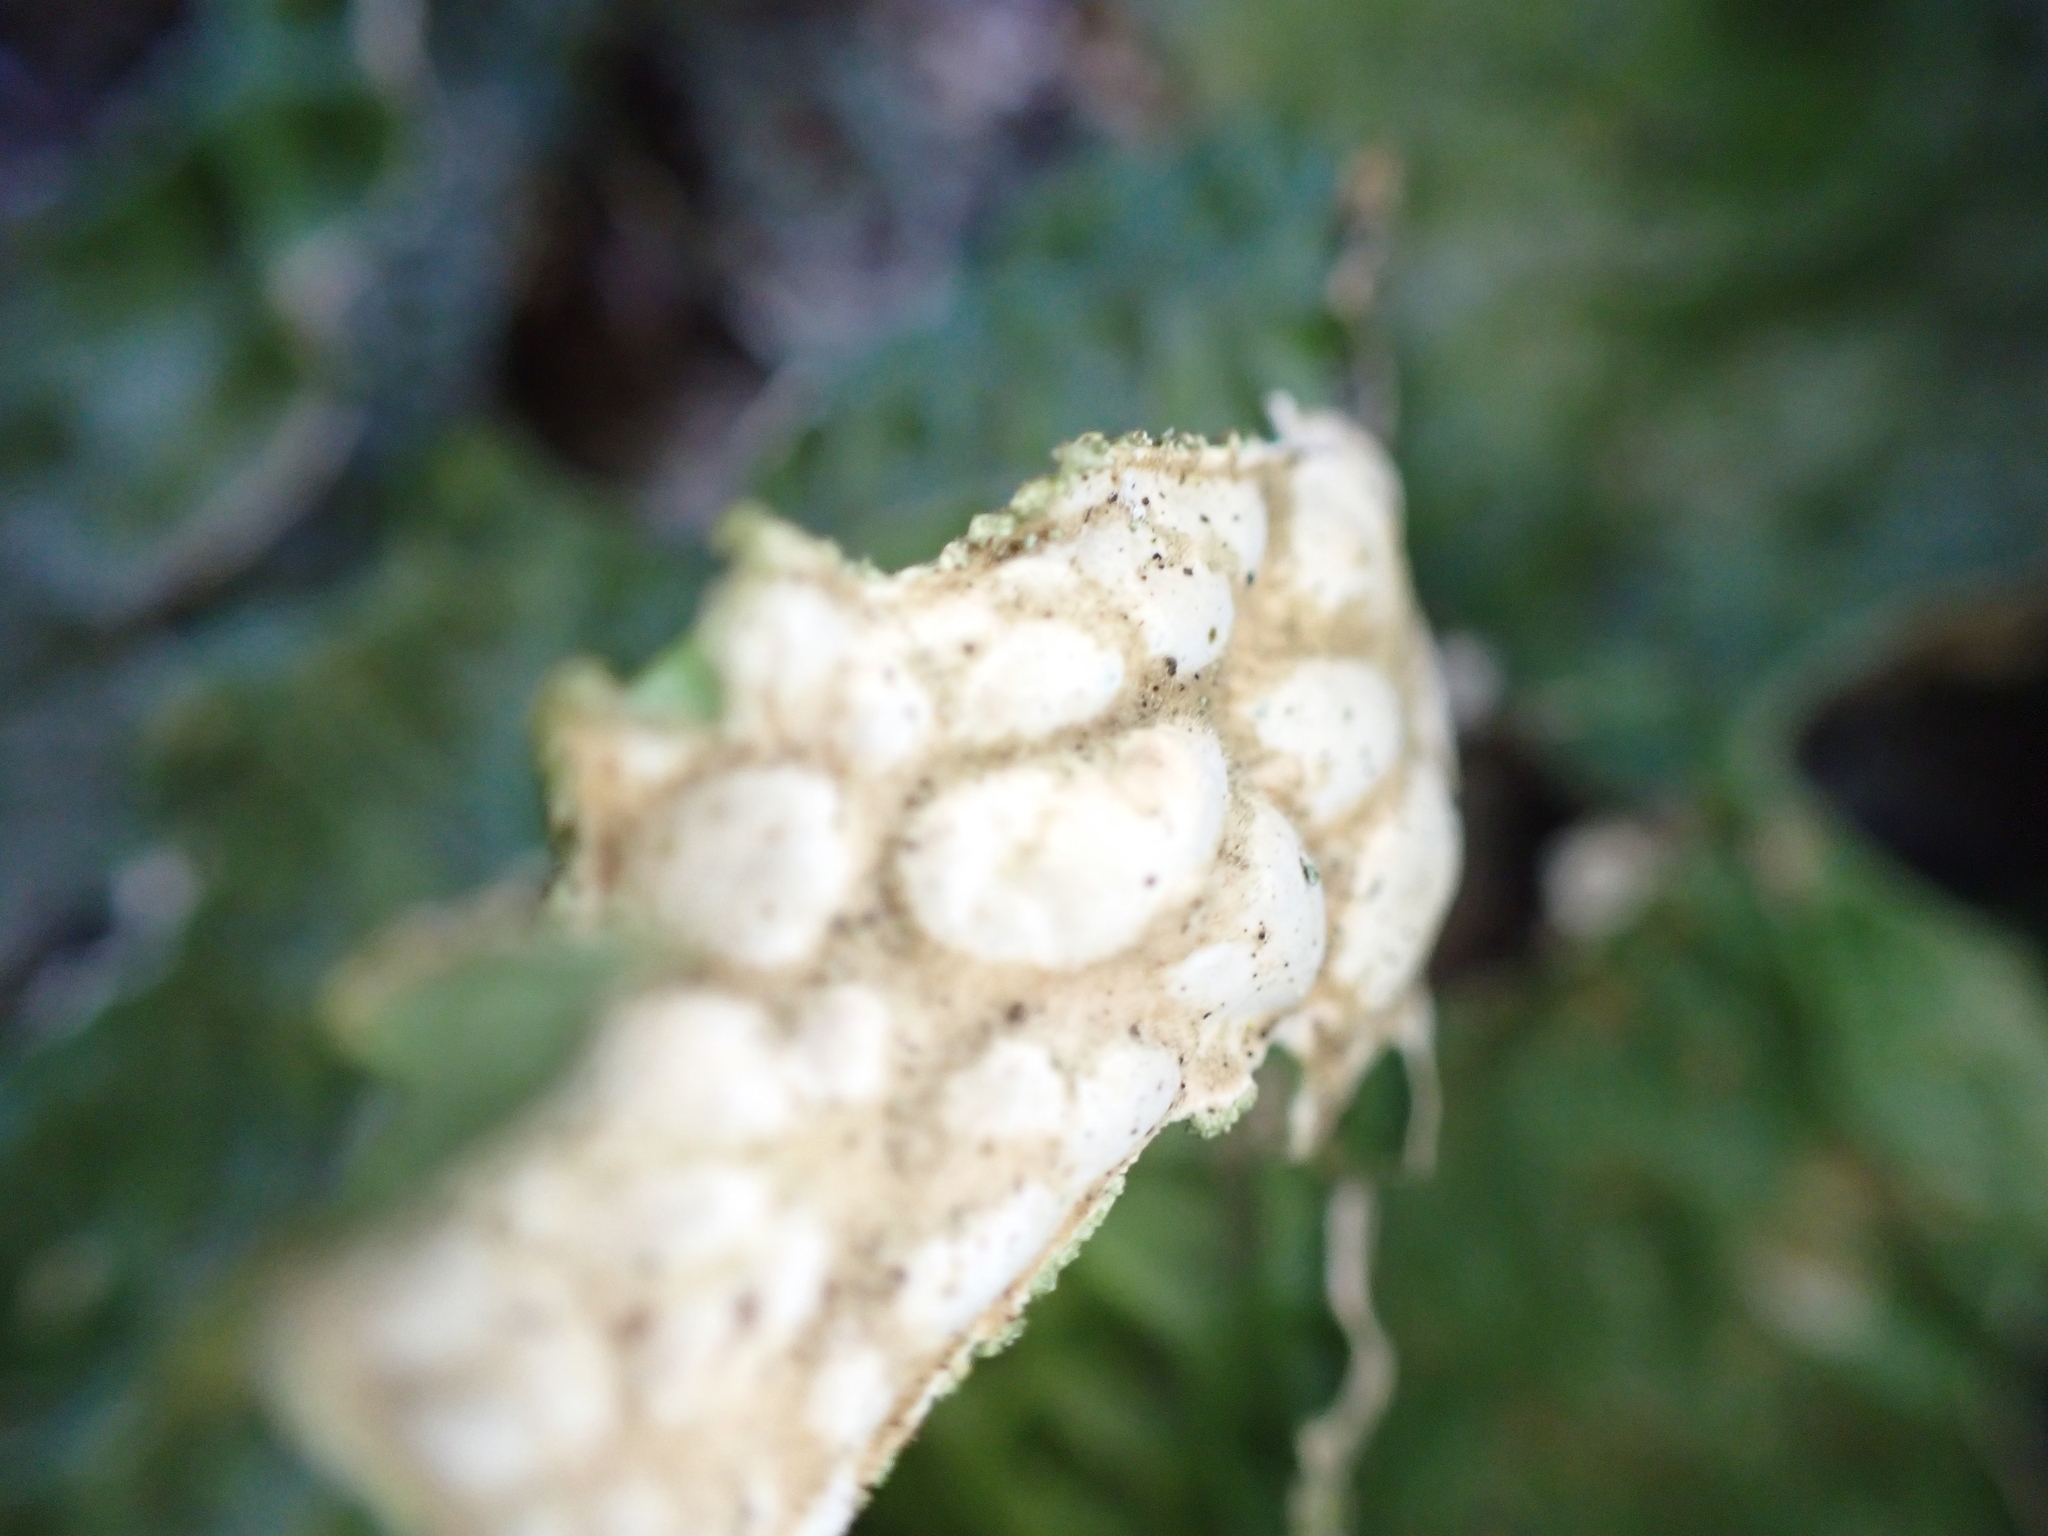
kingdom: Fungi
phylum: Ascomycota
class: Lecanoromycetes
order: Peltigerales
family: Lobariaceae
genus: Lobaria
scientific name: Lobaria pulmonaria
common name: Lungwort
